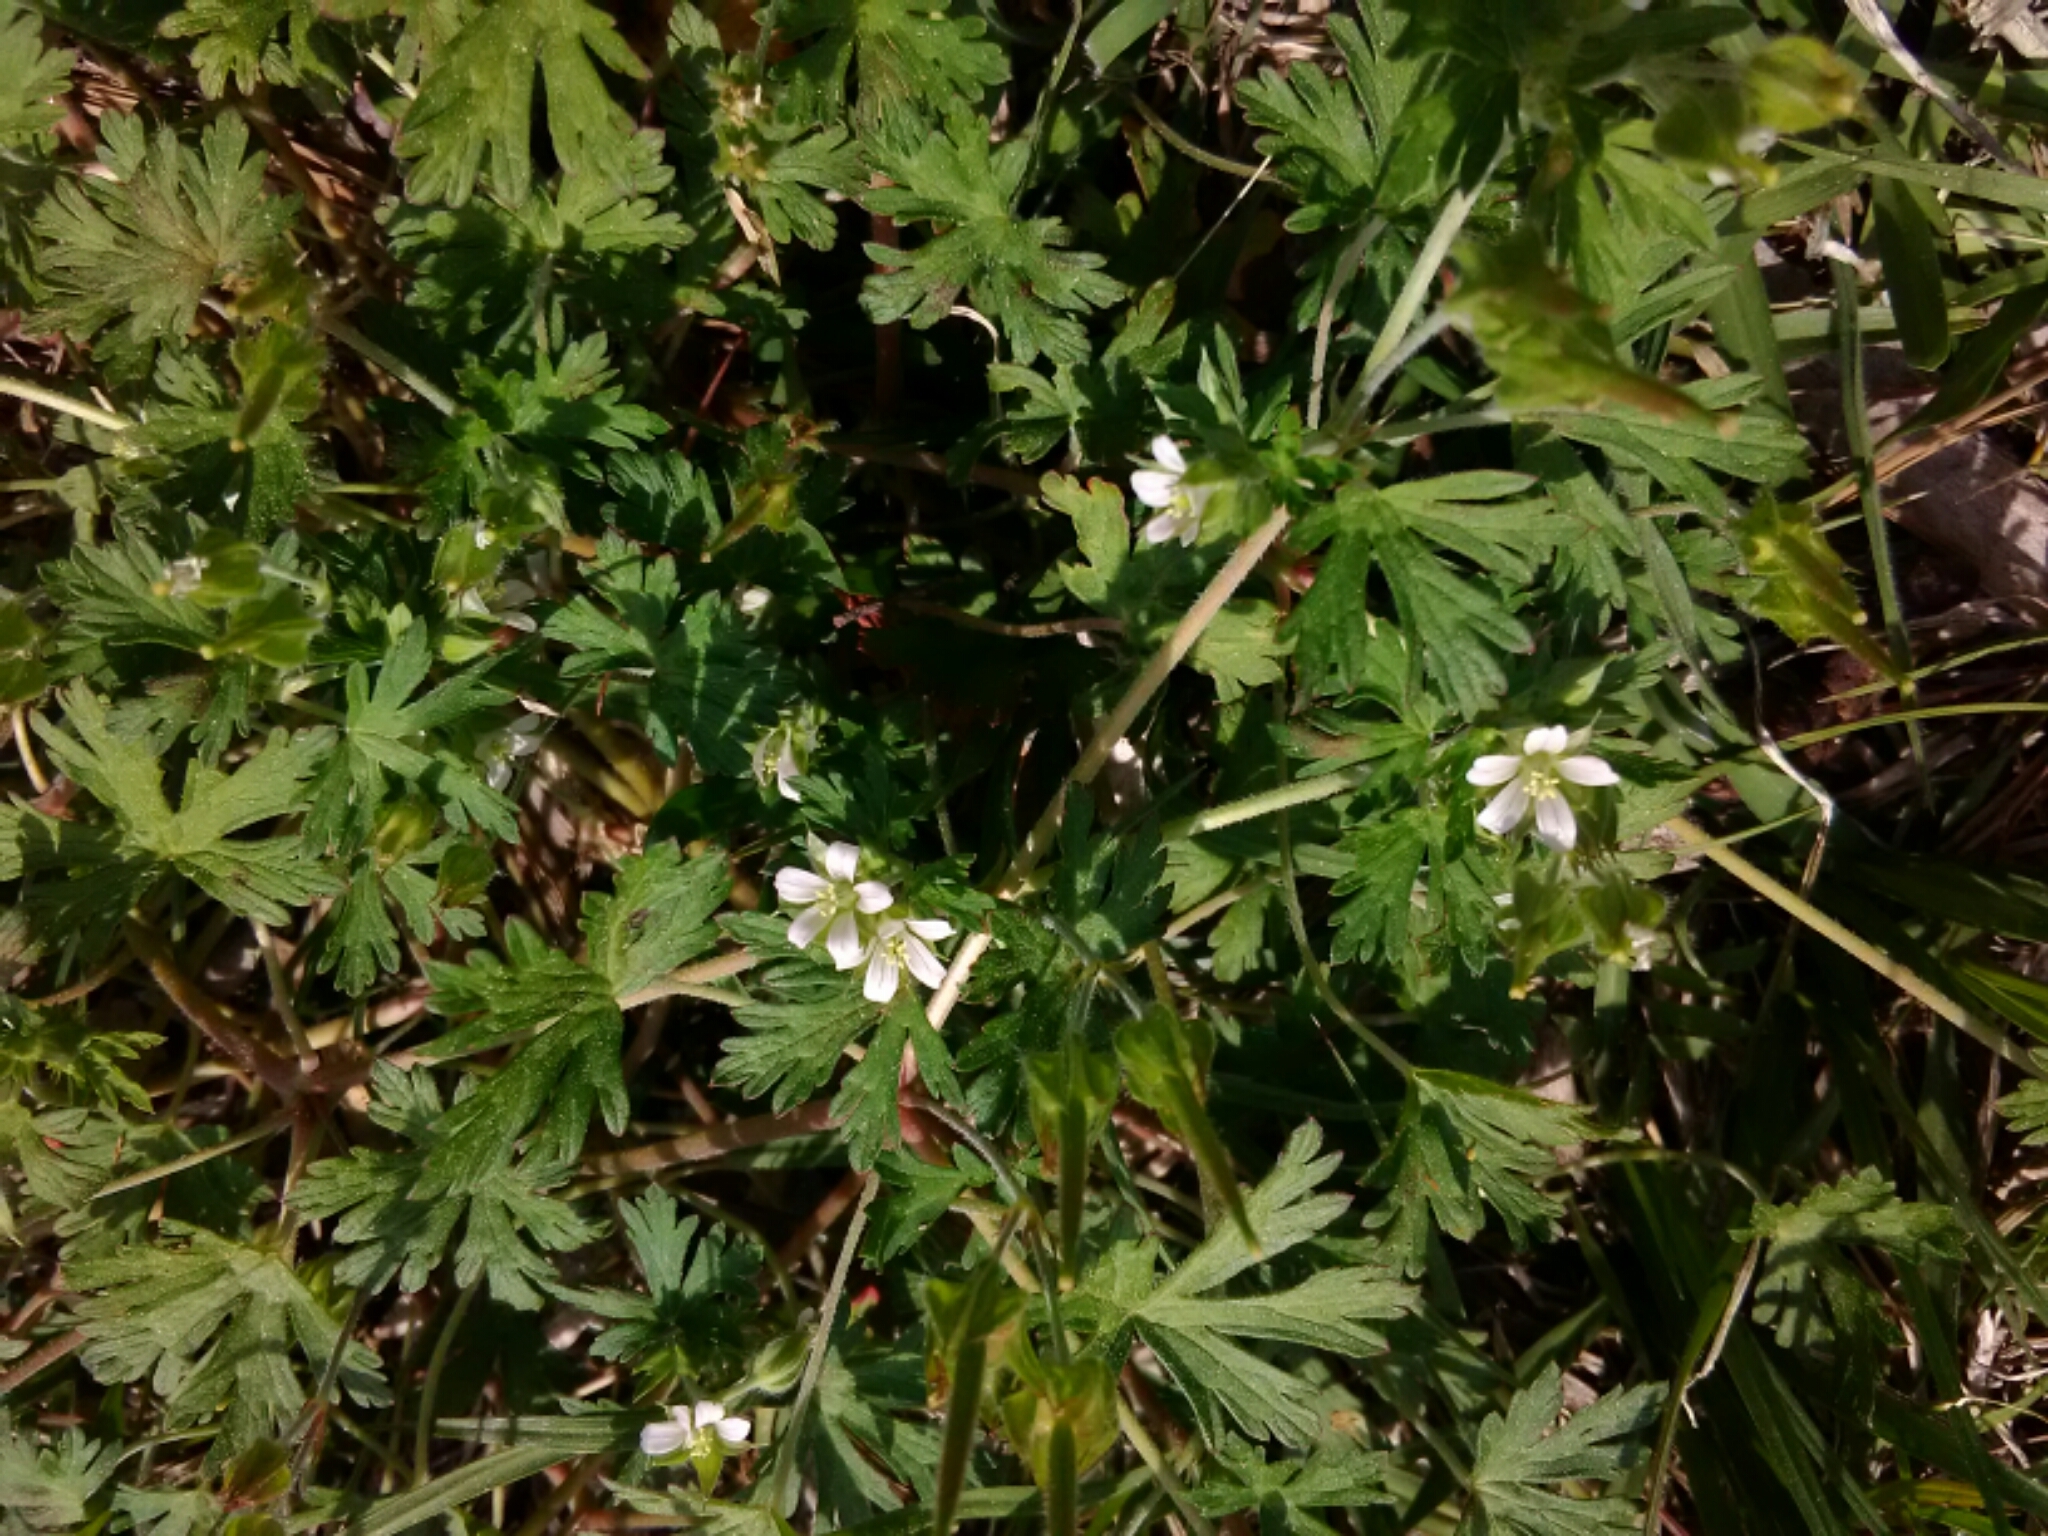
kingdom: Plantae
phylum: Tracheophyta
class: Magnoliopsida
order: Geraniales
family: Geraniaceae
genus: Geranium
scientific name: Geranium carolinianum
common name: Carolina crane's-bill
